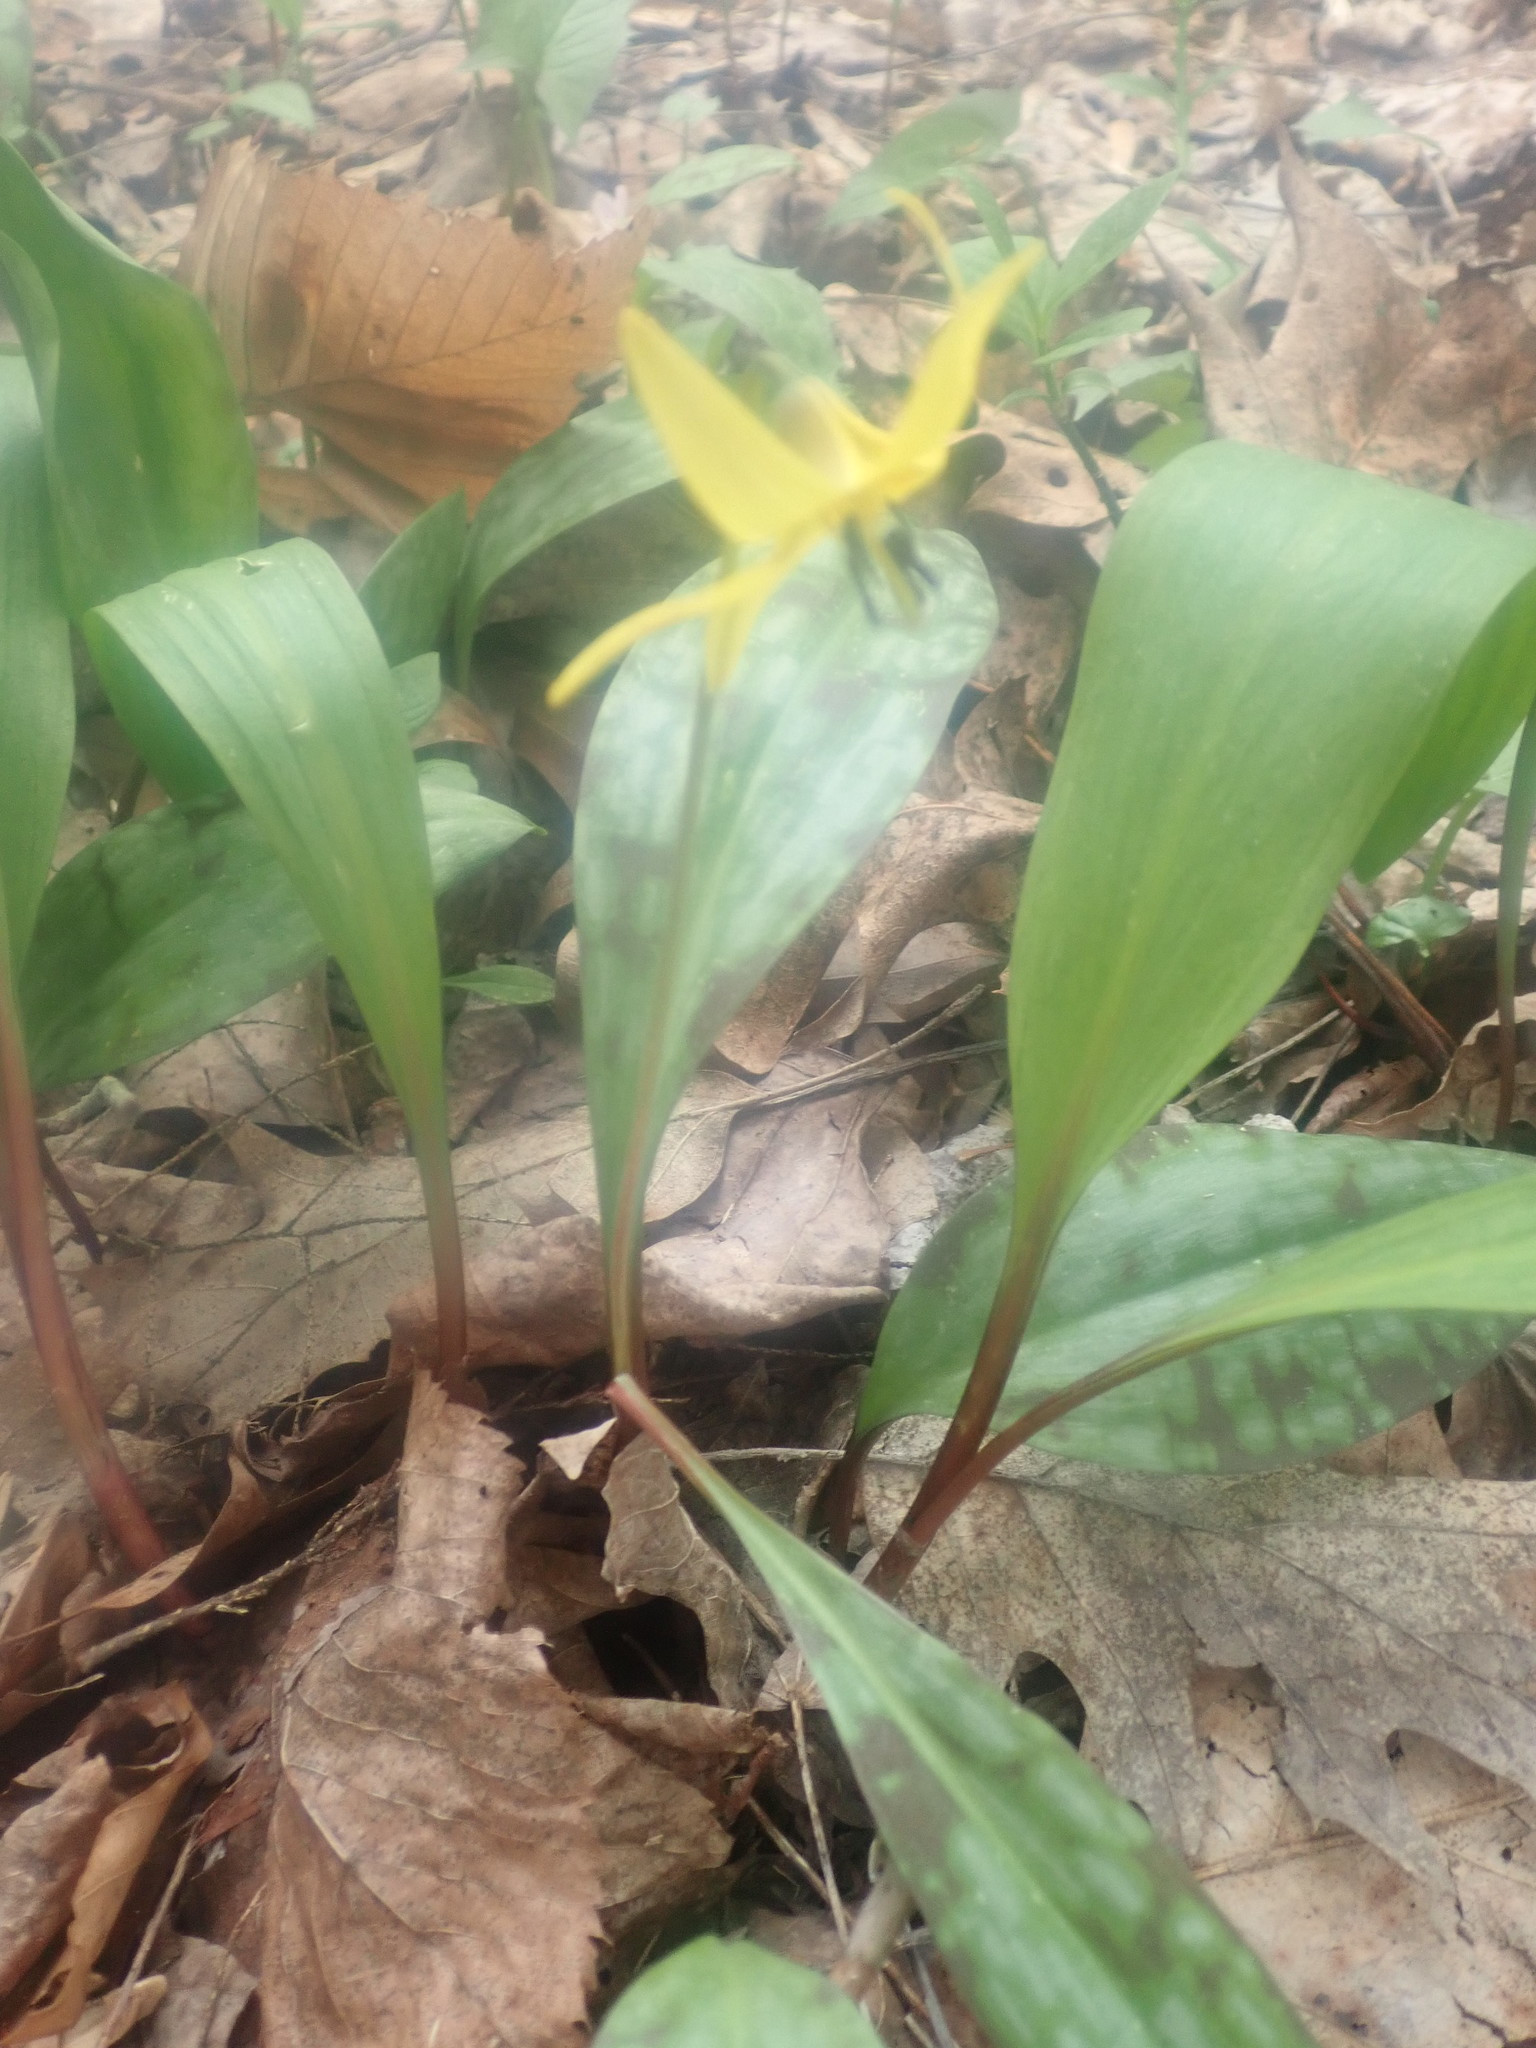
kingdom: Plantae
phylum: Tracheophyta
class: Liliopsida
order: Liliales
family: Liliaceae
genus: Erythronium
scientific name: Erythronium americanum
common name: Yellow adder's-tongue
